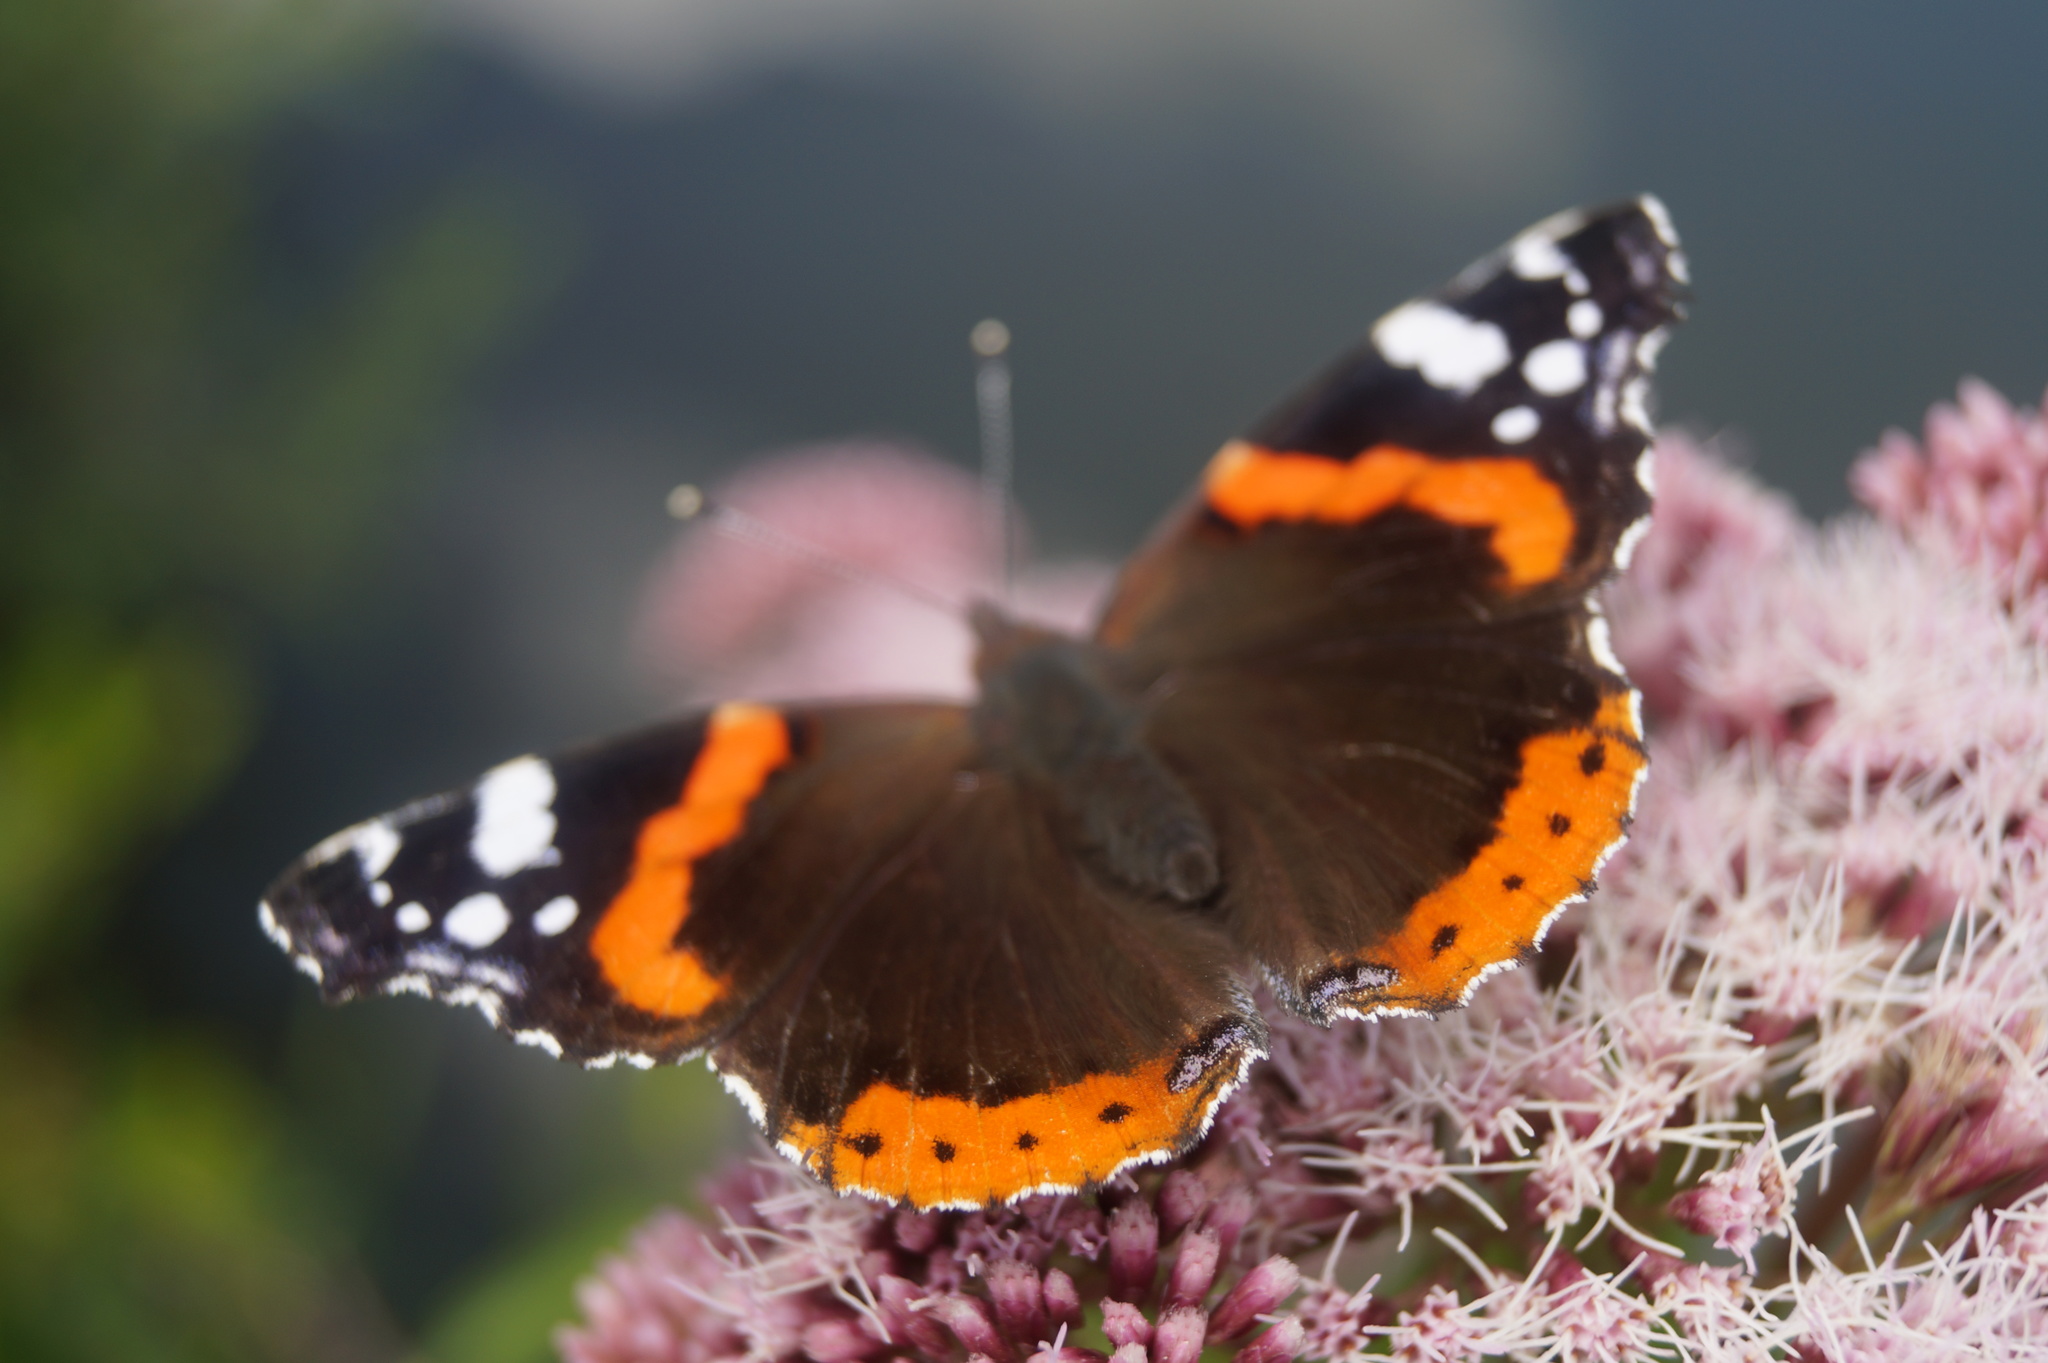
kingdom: Animalia
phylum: Arthropoda
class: Insecta
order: Lepidoptera
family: Nymphalidae
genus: Vanessa
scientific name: Vanessa atalanta
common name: Red admiral
